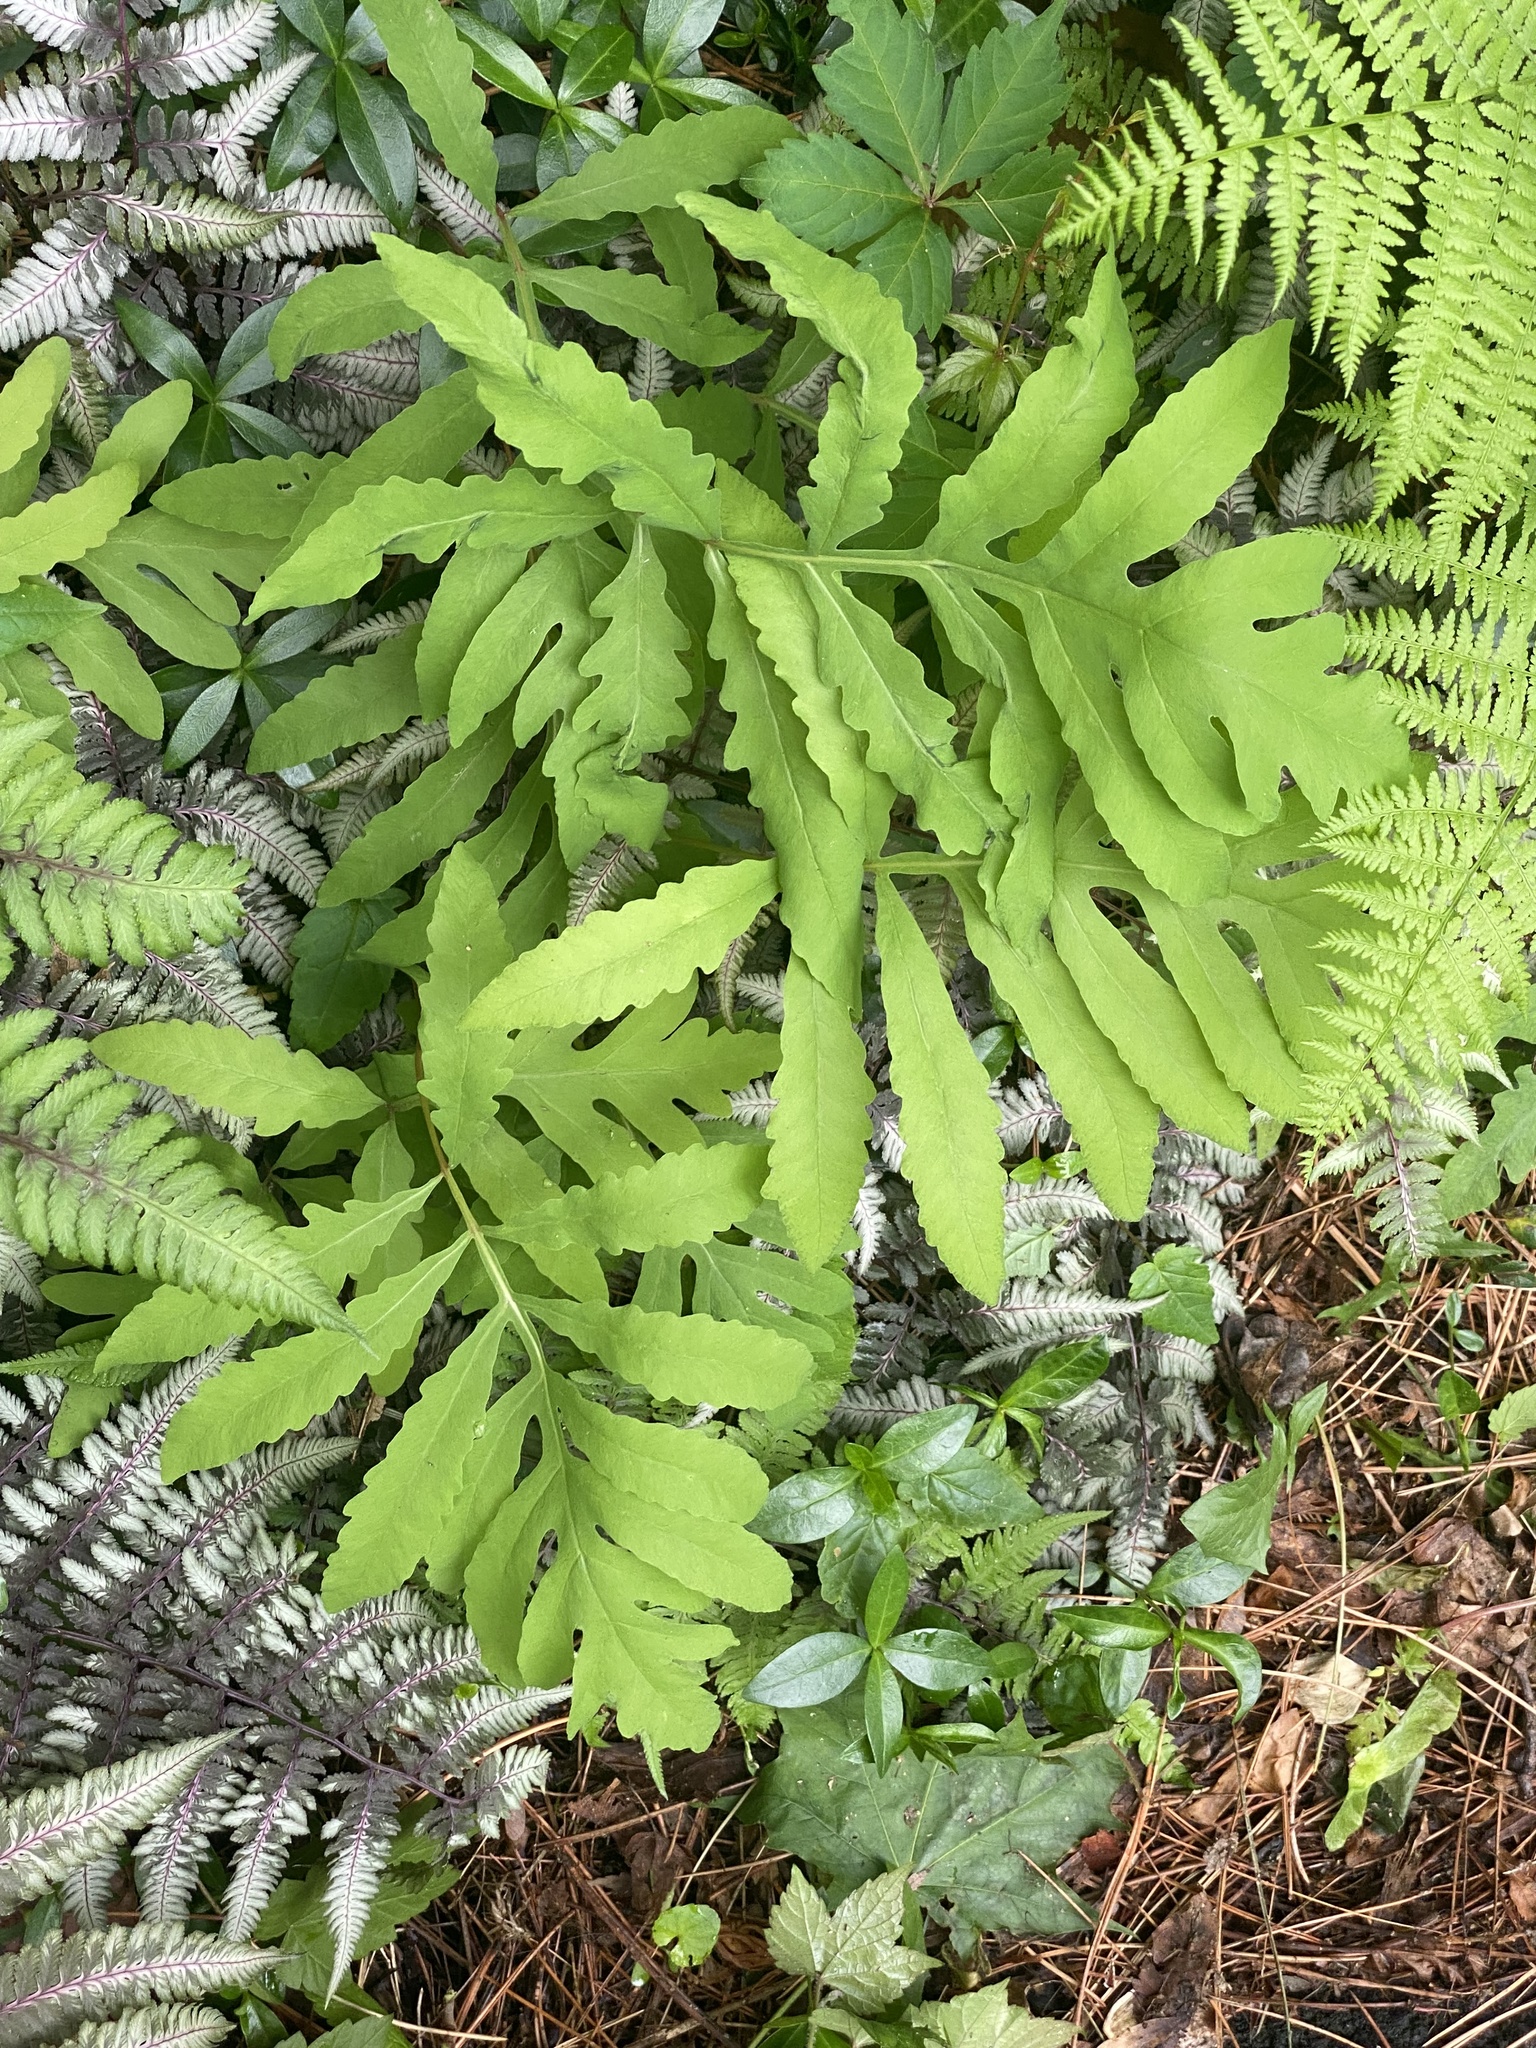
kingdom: Plantae
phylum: Tracheophyta
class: Polypodiopsida
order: Polypodiales
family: Onocleaceae
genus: Onoclea
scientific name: Onoclea sensibilis
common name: Sensitive fern
